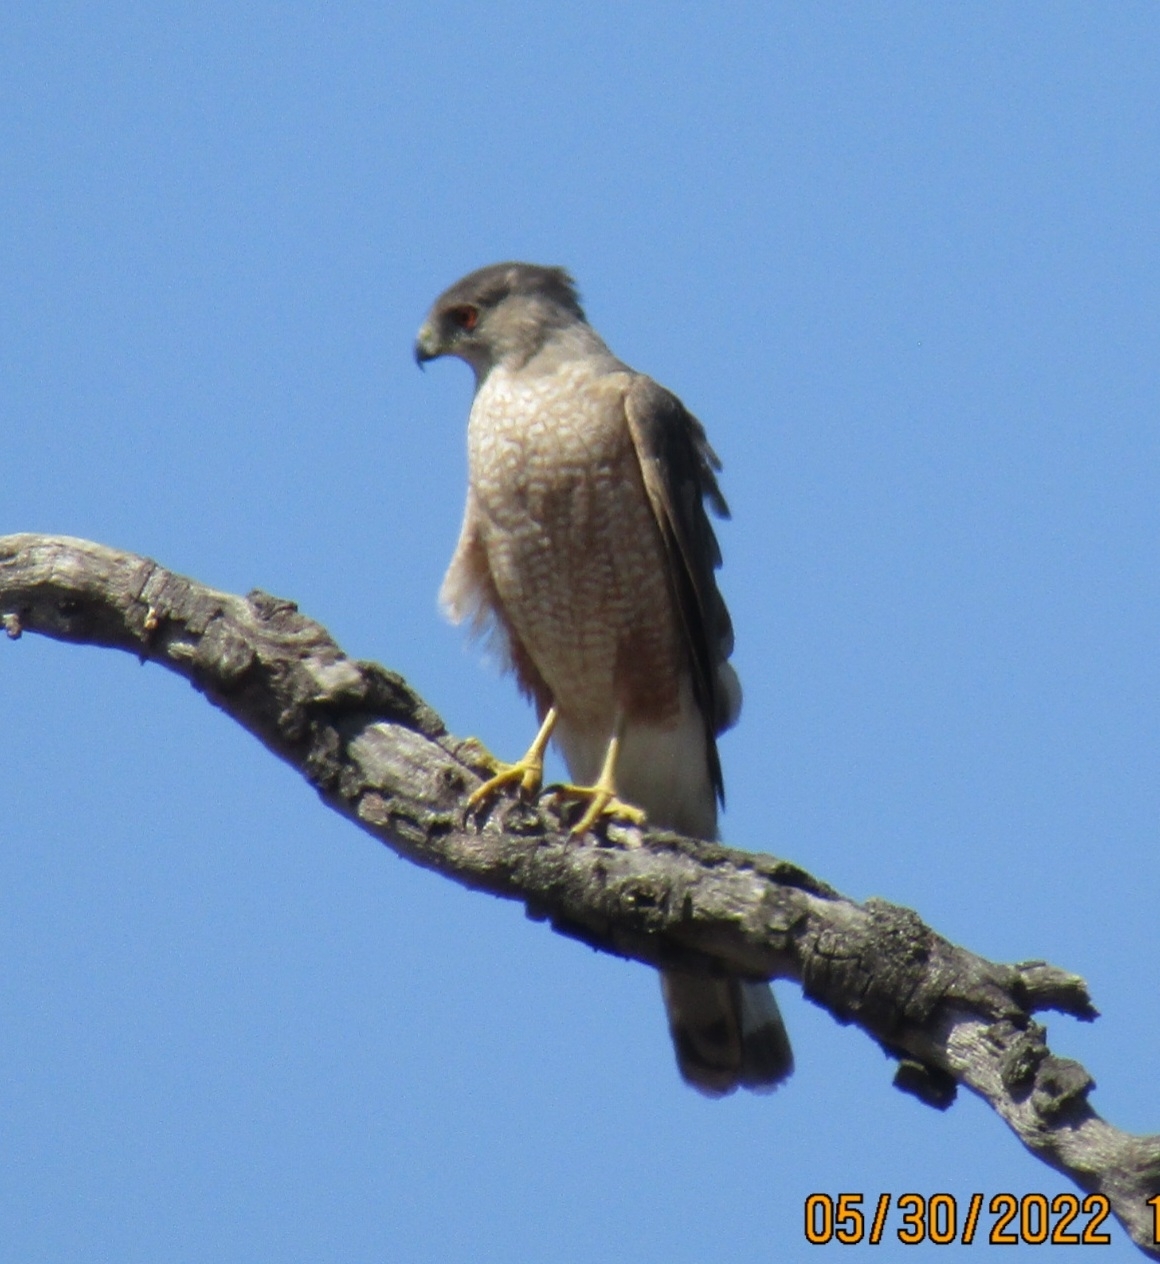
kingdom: Animalia
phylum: Chordata
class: Aves
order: Accipitriformes
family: Accipitridae
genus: Accipiter
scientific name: Accipiter cooperii
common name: Cooper's hawk
